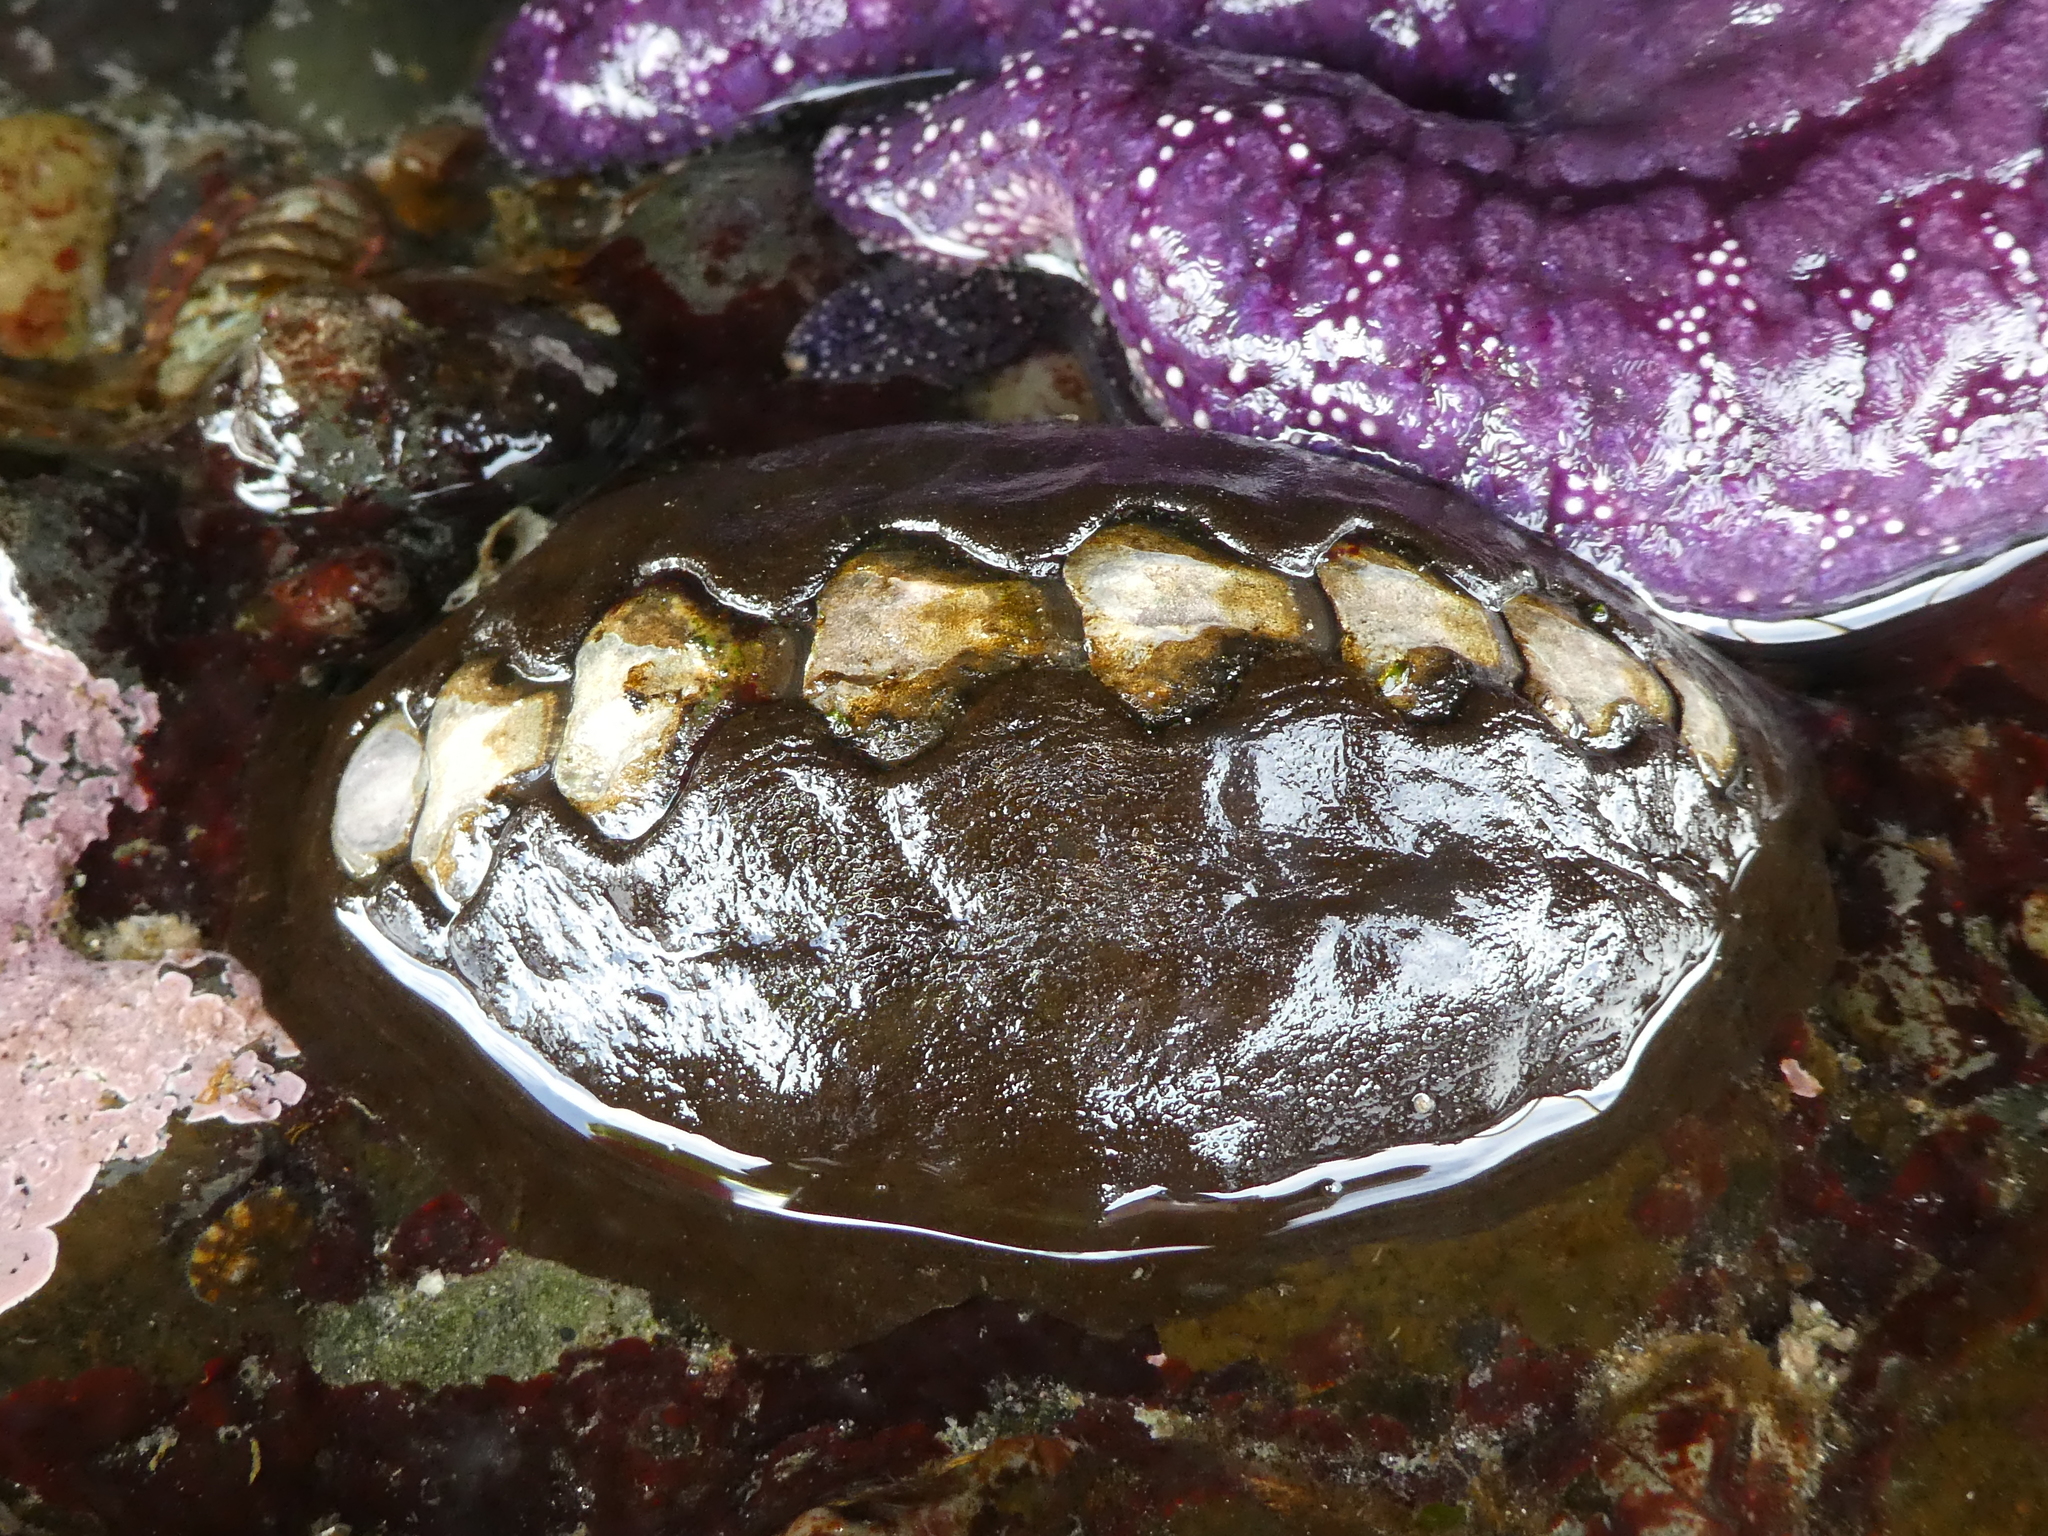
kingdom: Animalia
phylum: Mollusca
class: Polyplacophora
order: Chitonida
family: Mopaliidae
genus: Katharina
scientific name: Katharina tunicata
